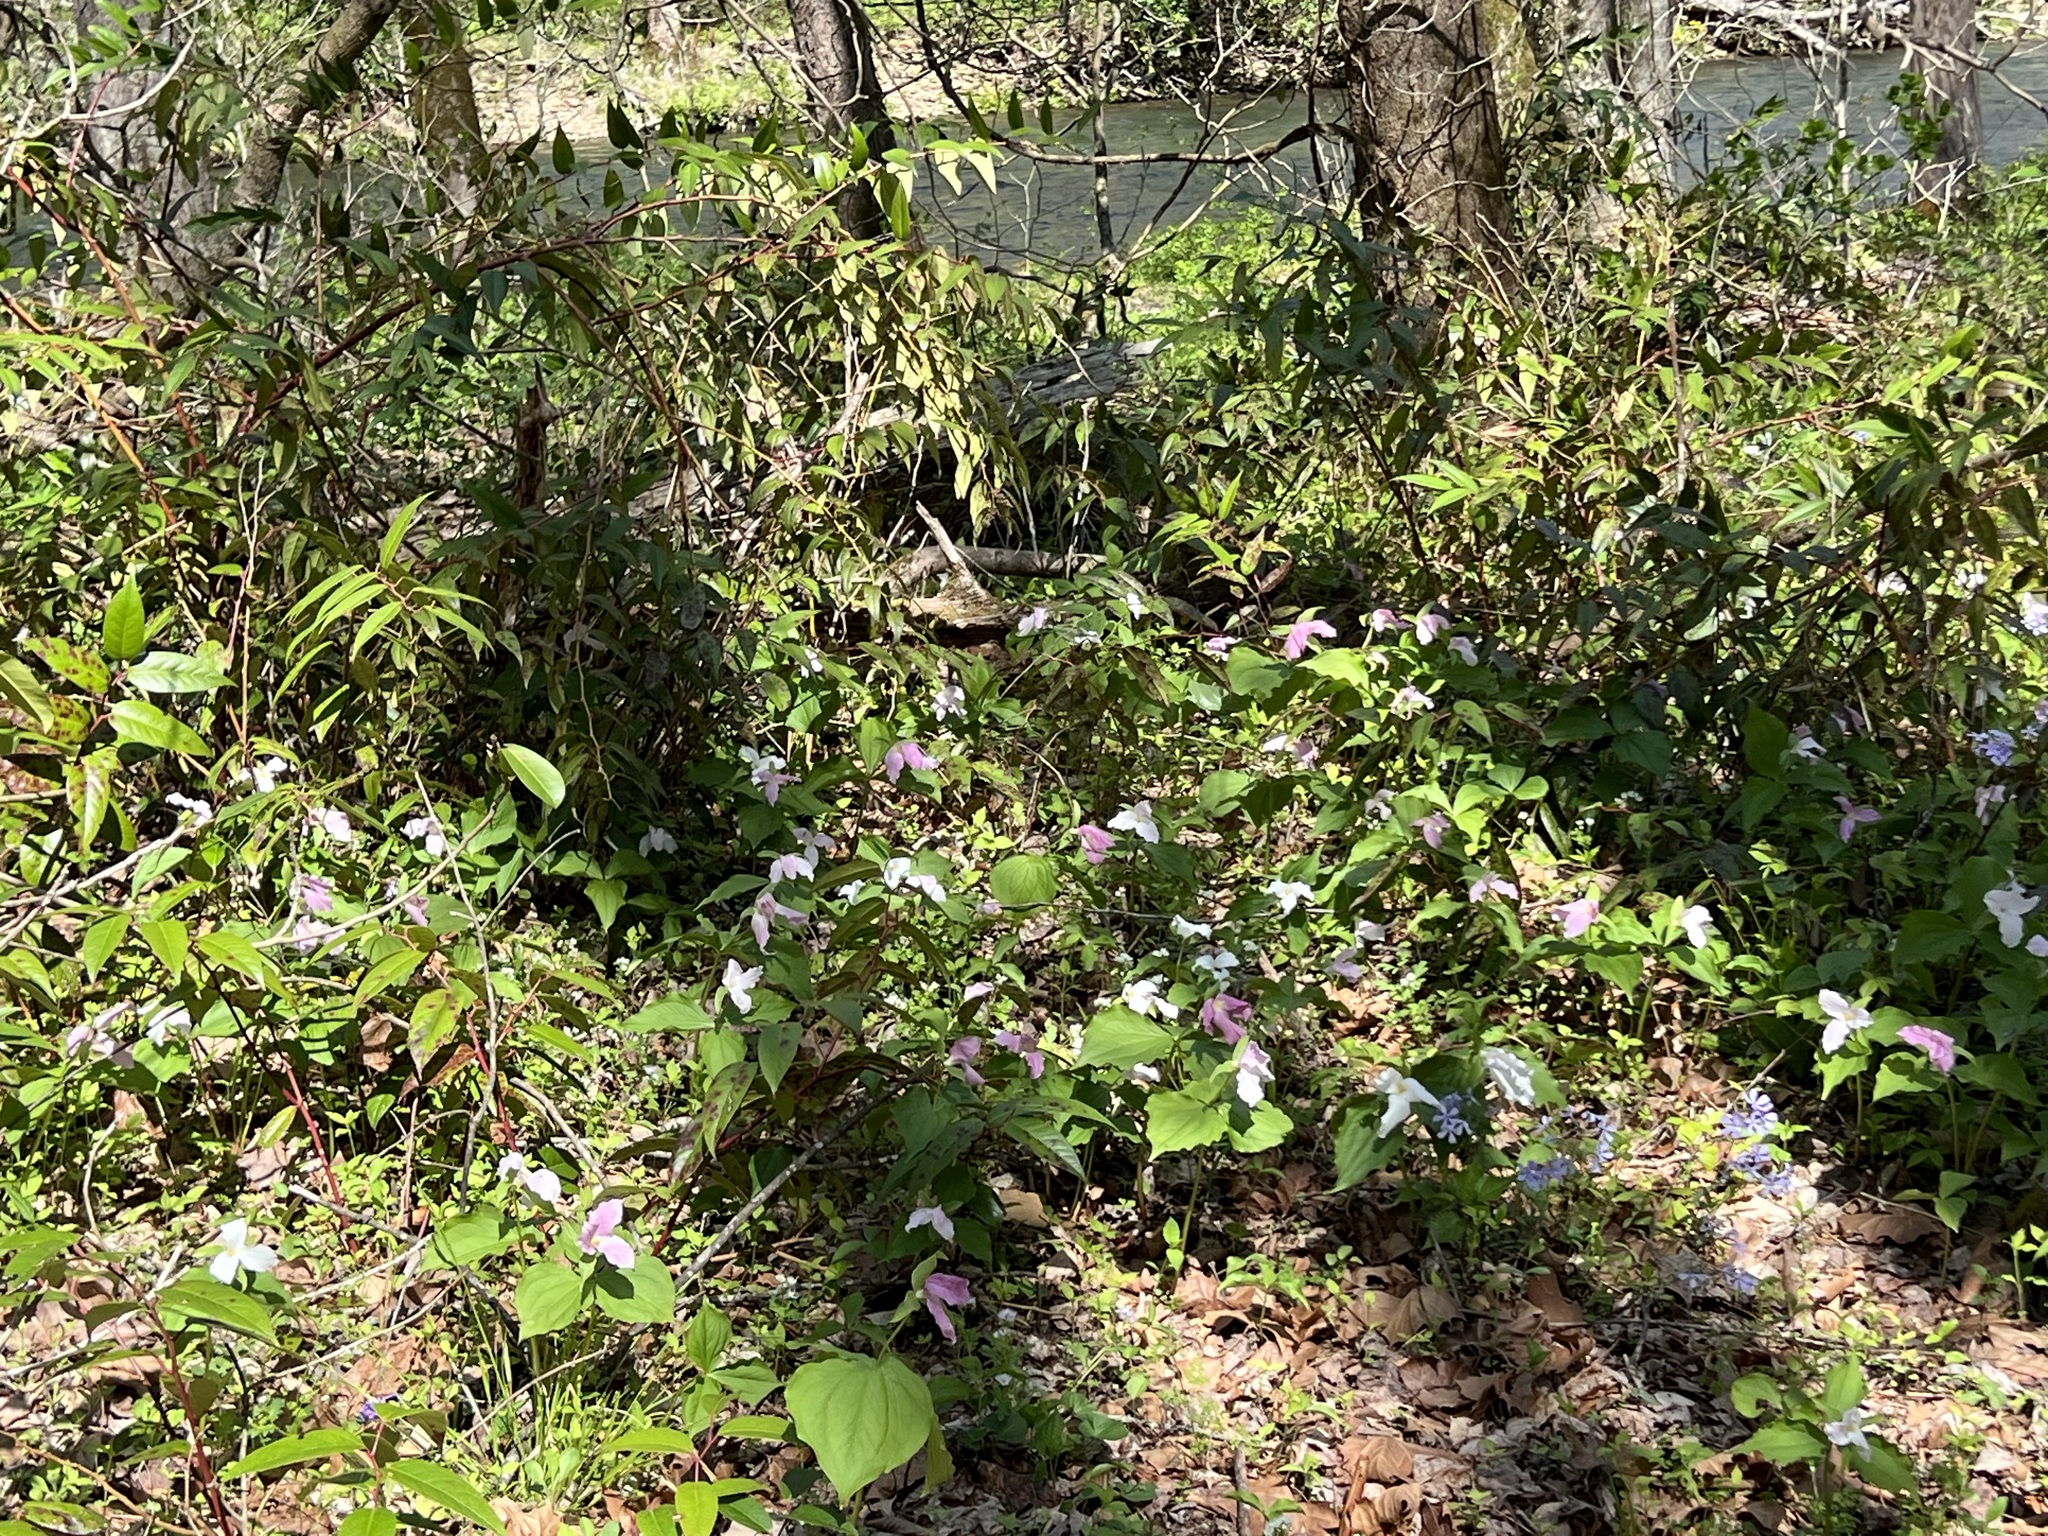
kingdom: Plantae
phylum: Tracheophyta
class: Liliopsida
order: Liliales
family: Melanthiaceae
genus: Trillium
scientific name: Trillium grandiflorum
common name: Great white trillium
